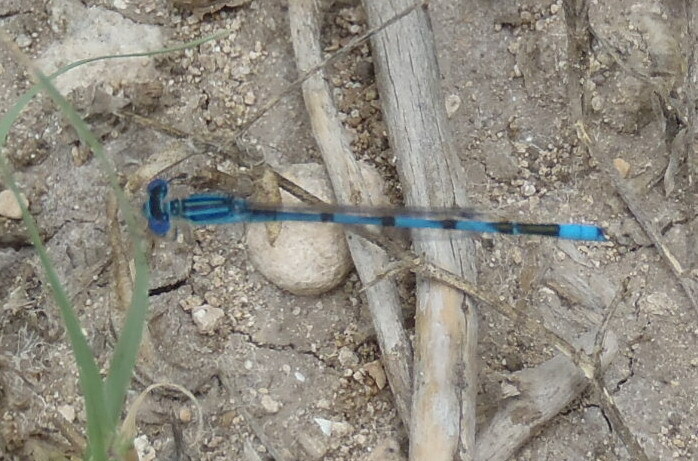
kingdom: Animalia
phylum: Arthropoda
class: Insecta
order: Odonata
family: Coenagrionidae
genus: Enallagma
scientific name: Enallagma basidens
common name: Double-striped bluet
